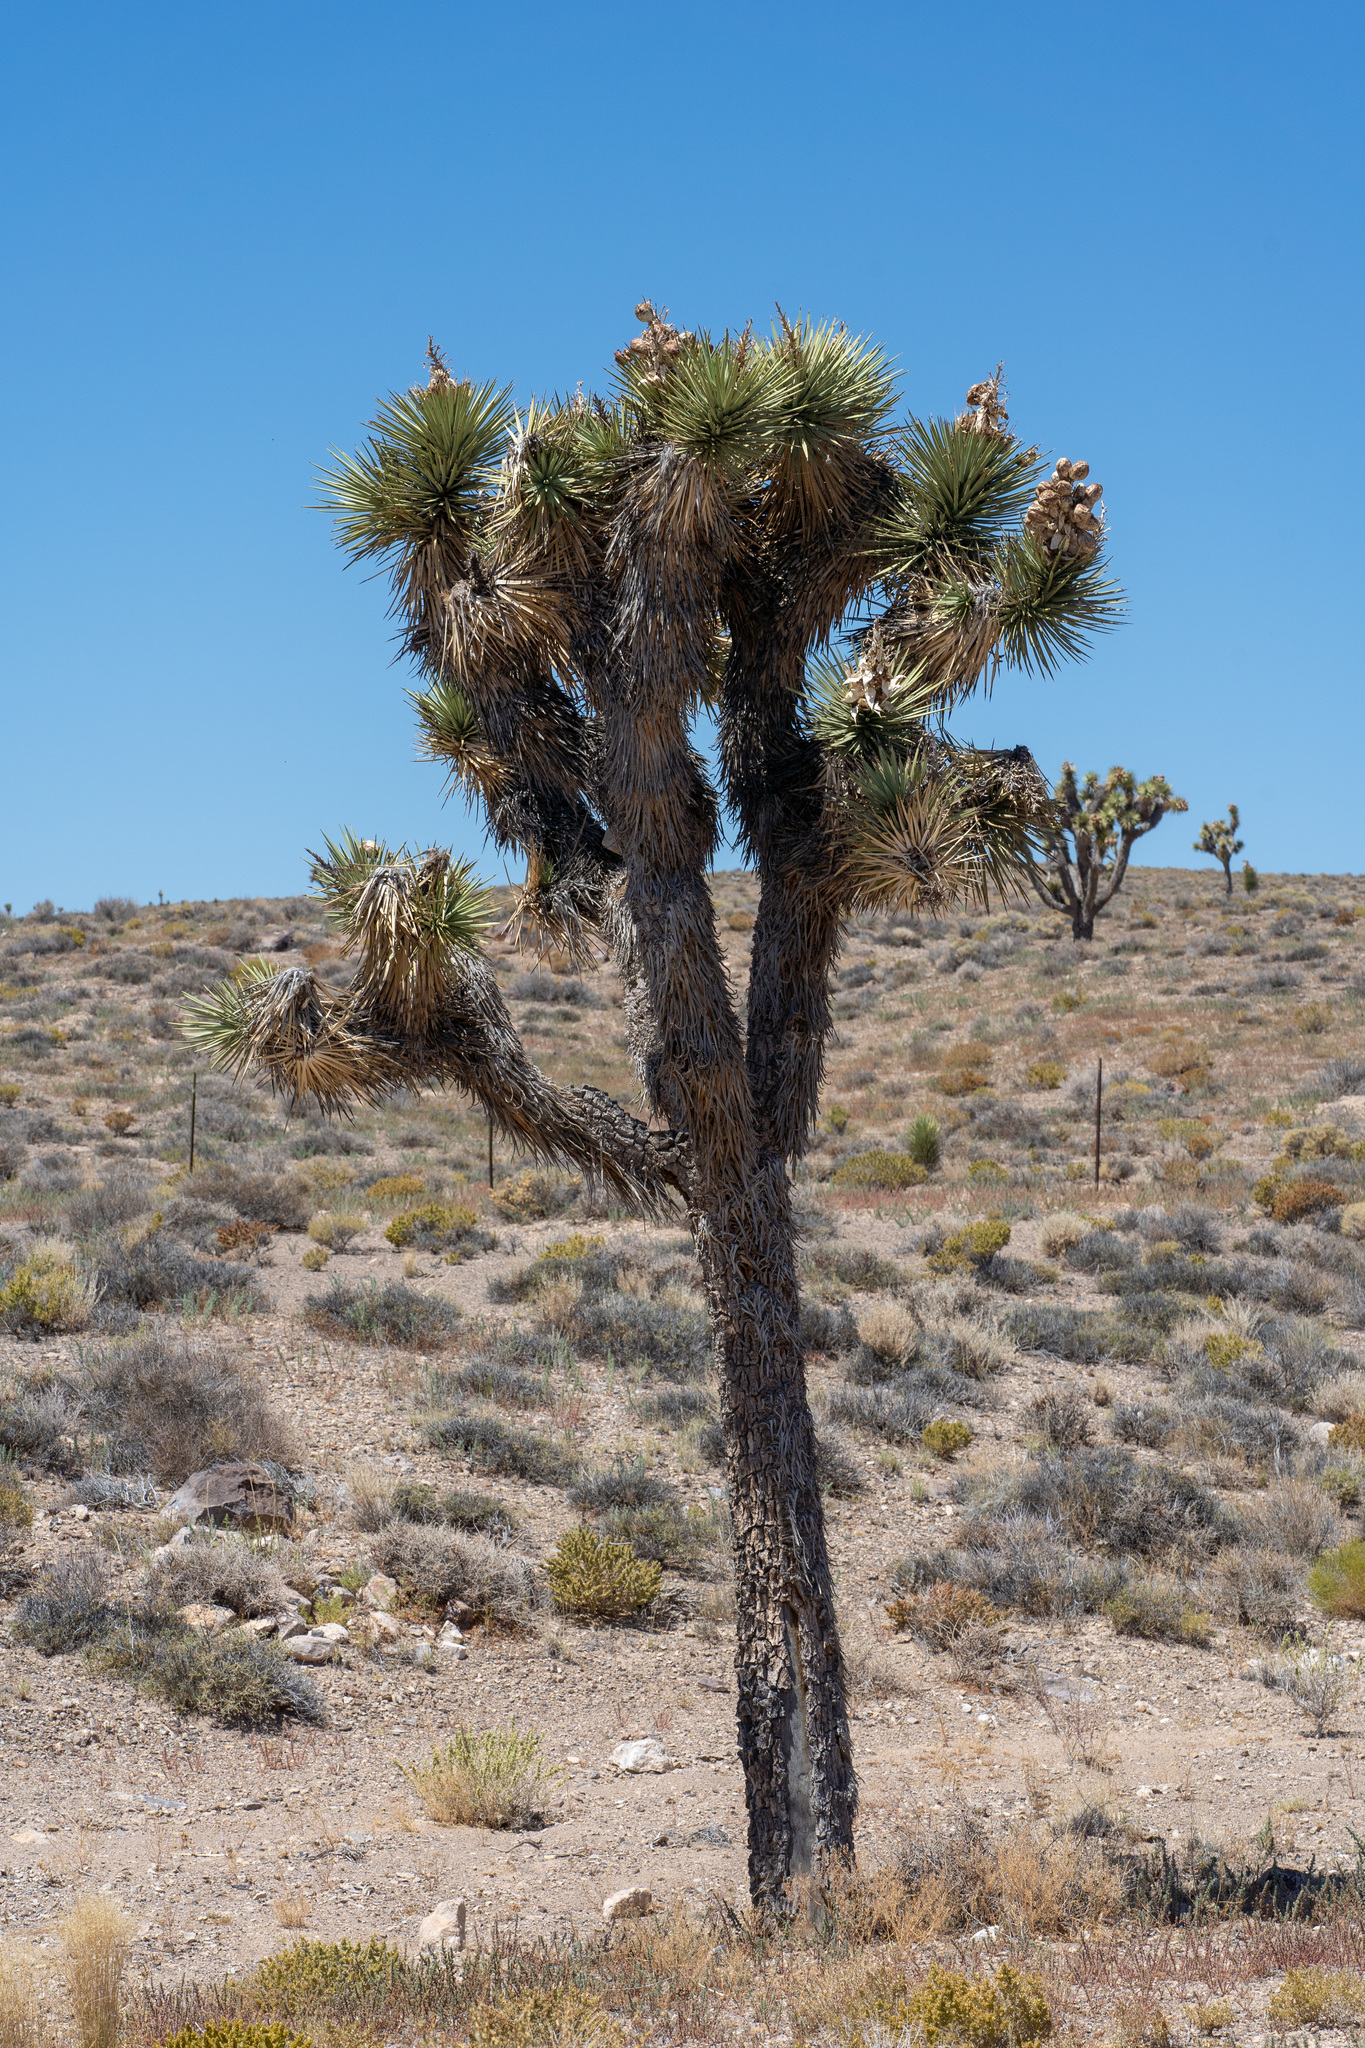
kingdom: Plantae
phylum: Tracheophyta
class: Liliopsida
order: Asparagales
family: Asparagaceae
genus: Yucca
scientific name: Yucca brevifolia
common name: Joshua tree
